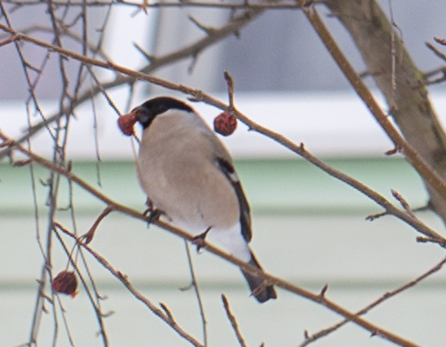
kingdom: Animalia
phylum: Chordata
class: Aves
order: Passeriformes
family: Fringillidae
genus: Pyrrhula
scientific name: Pyrrhula pyrrhula
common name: Eurasian bullfinch
